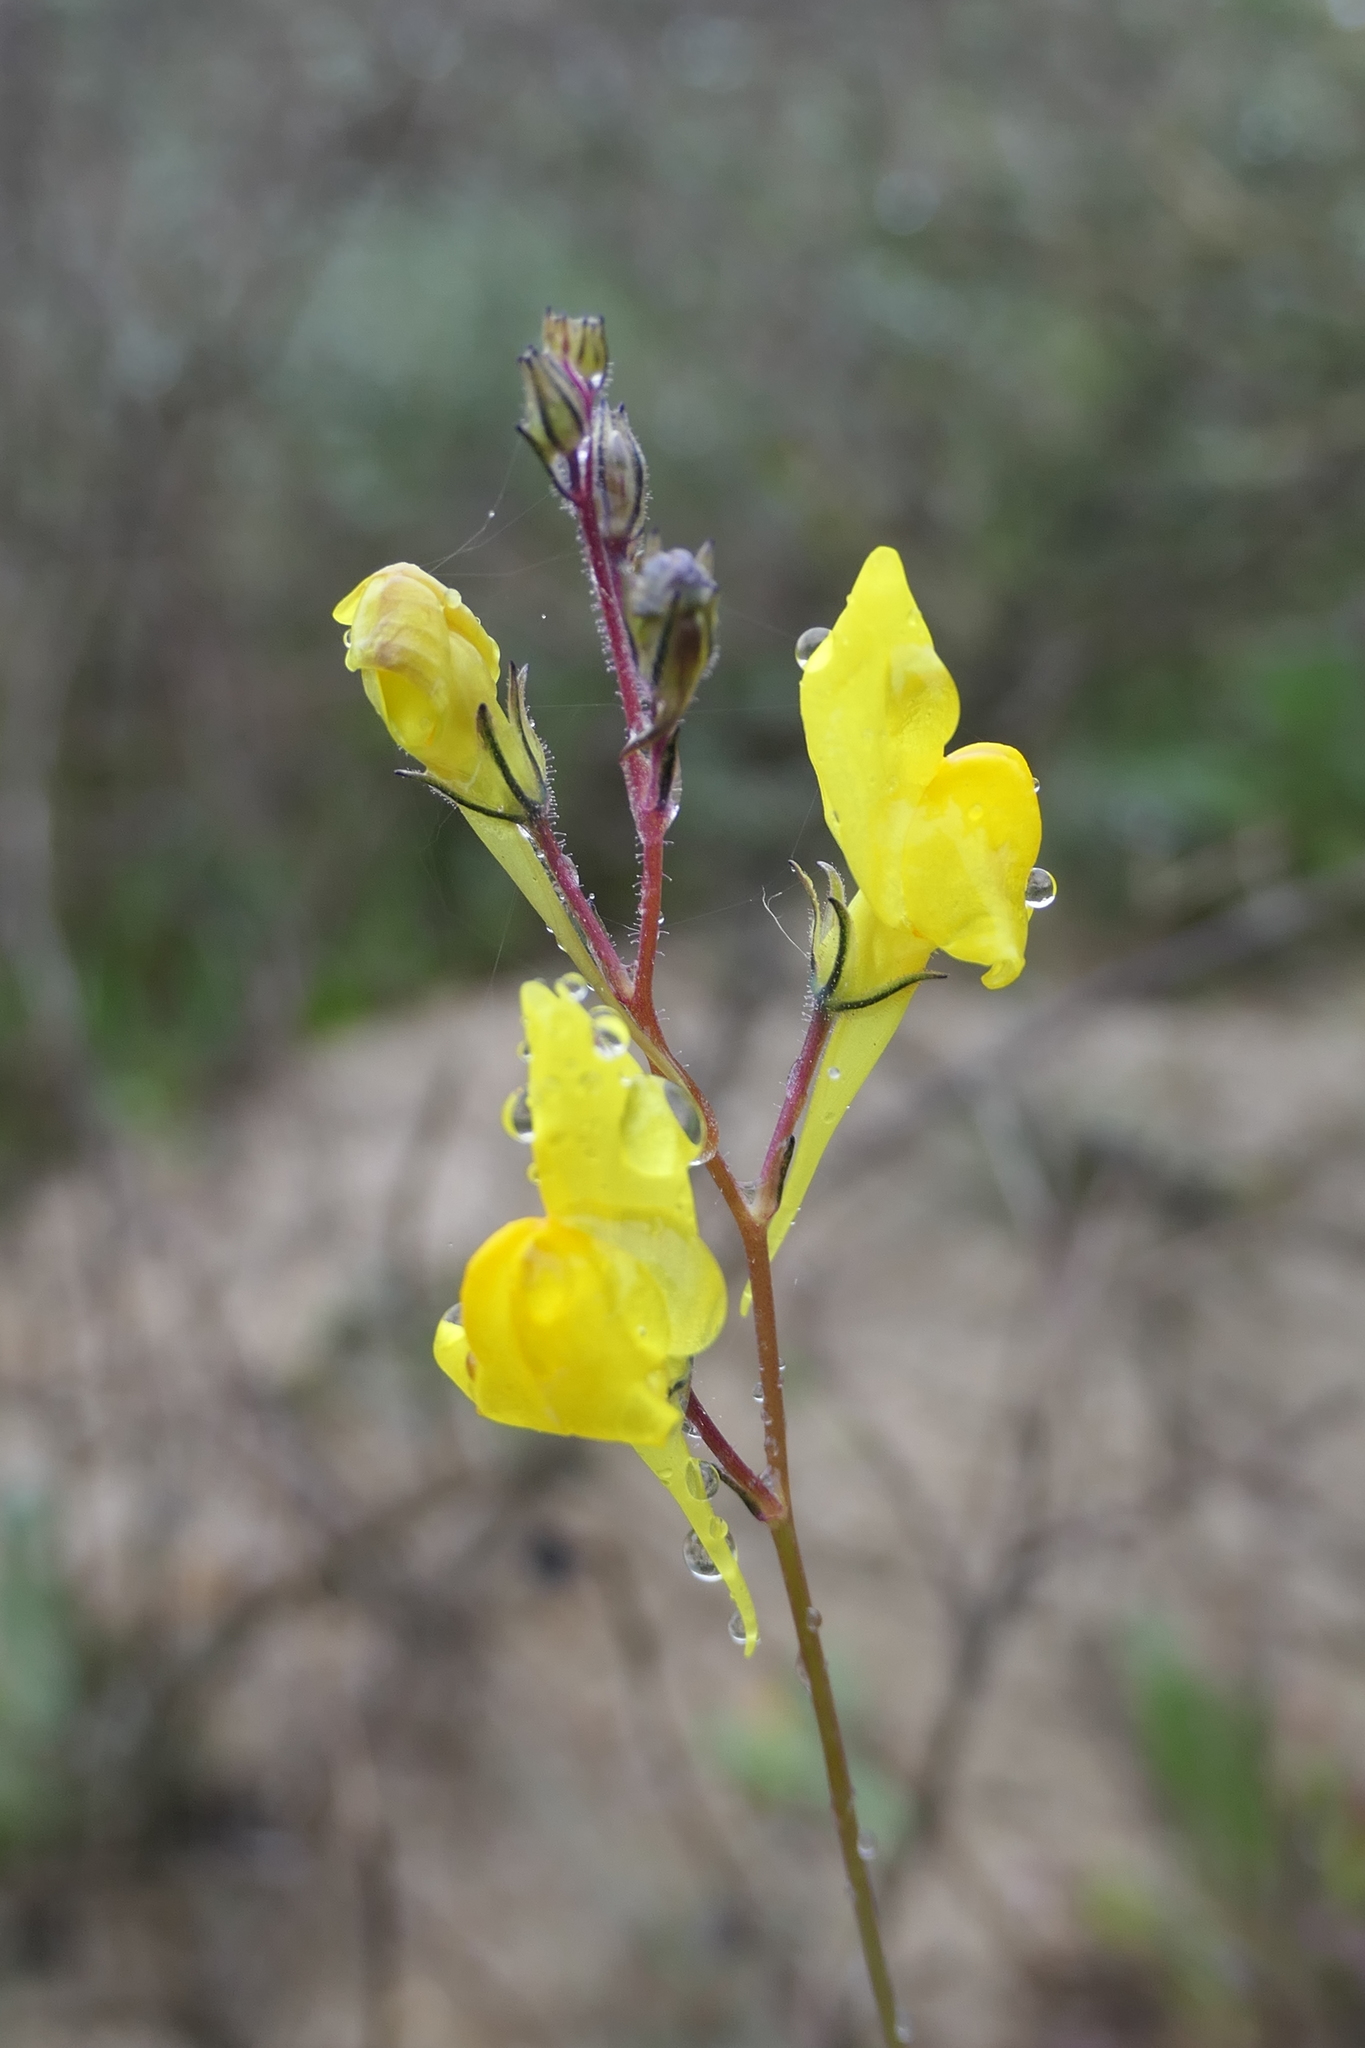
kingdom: Plantae
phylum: Tracheophyta
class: Magnoliopsida
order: Lamiales
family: Plantaginaceae
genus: Linaria
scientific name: Linaria spartea
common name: Ballast toadflax
